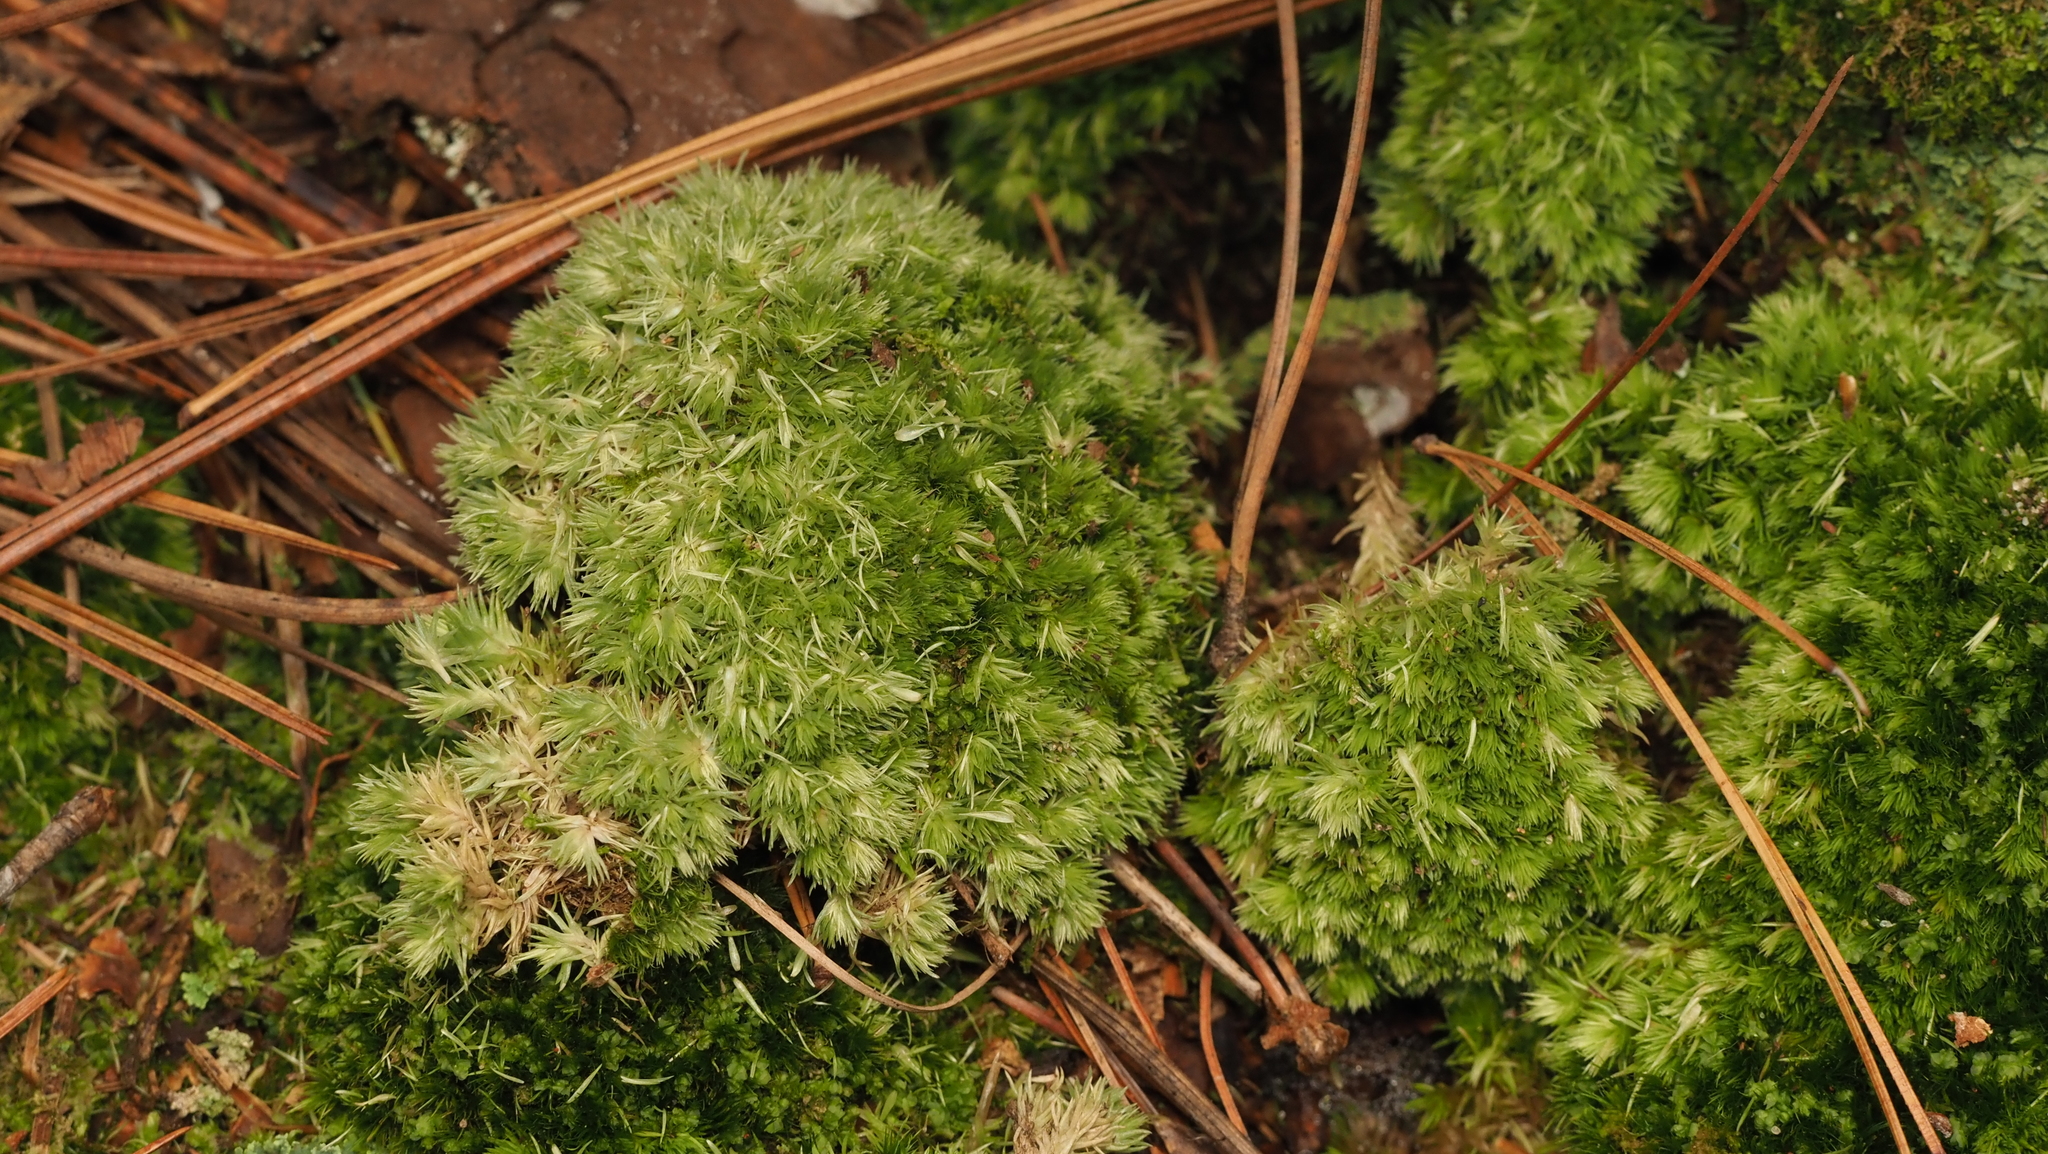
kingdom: Plantae
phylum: Bryophyta
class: Bryopsida
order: Dicranales
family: Leucobryaceae
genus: Leucobryum
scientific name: Leucobryum glaucum
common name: Large white-moss
